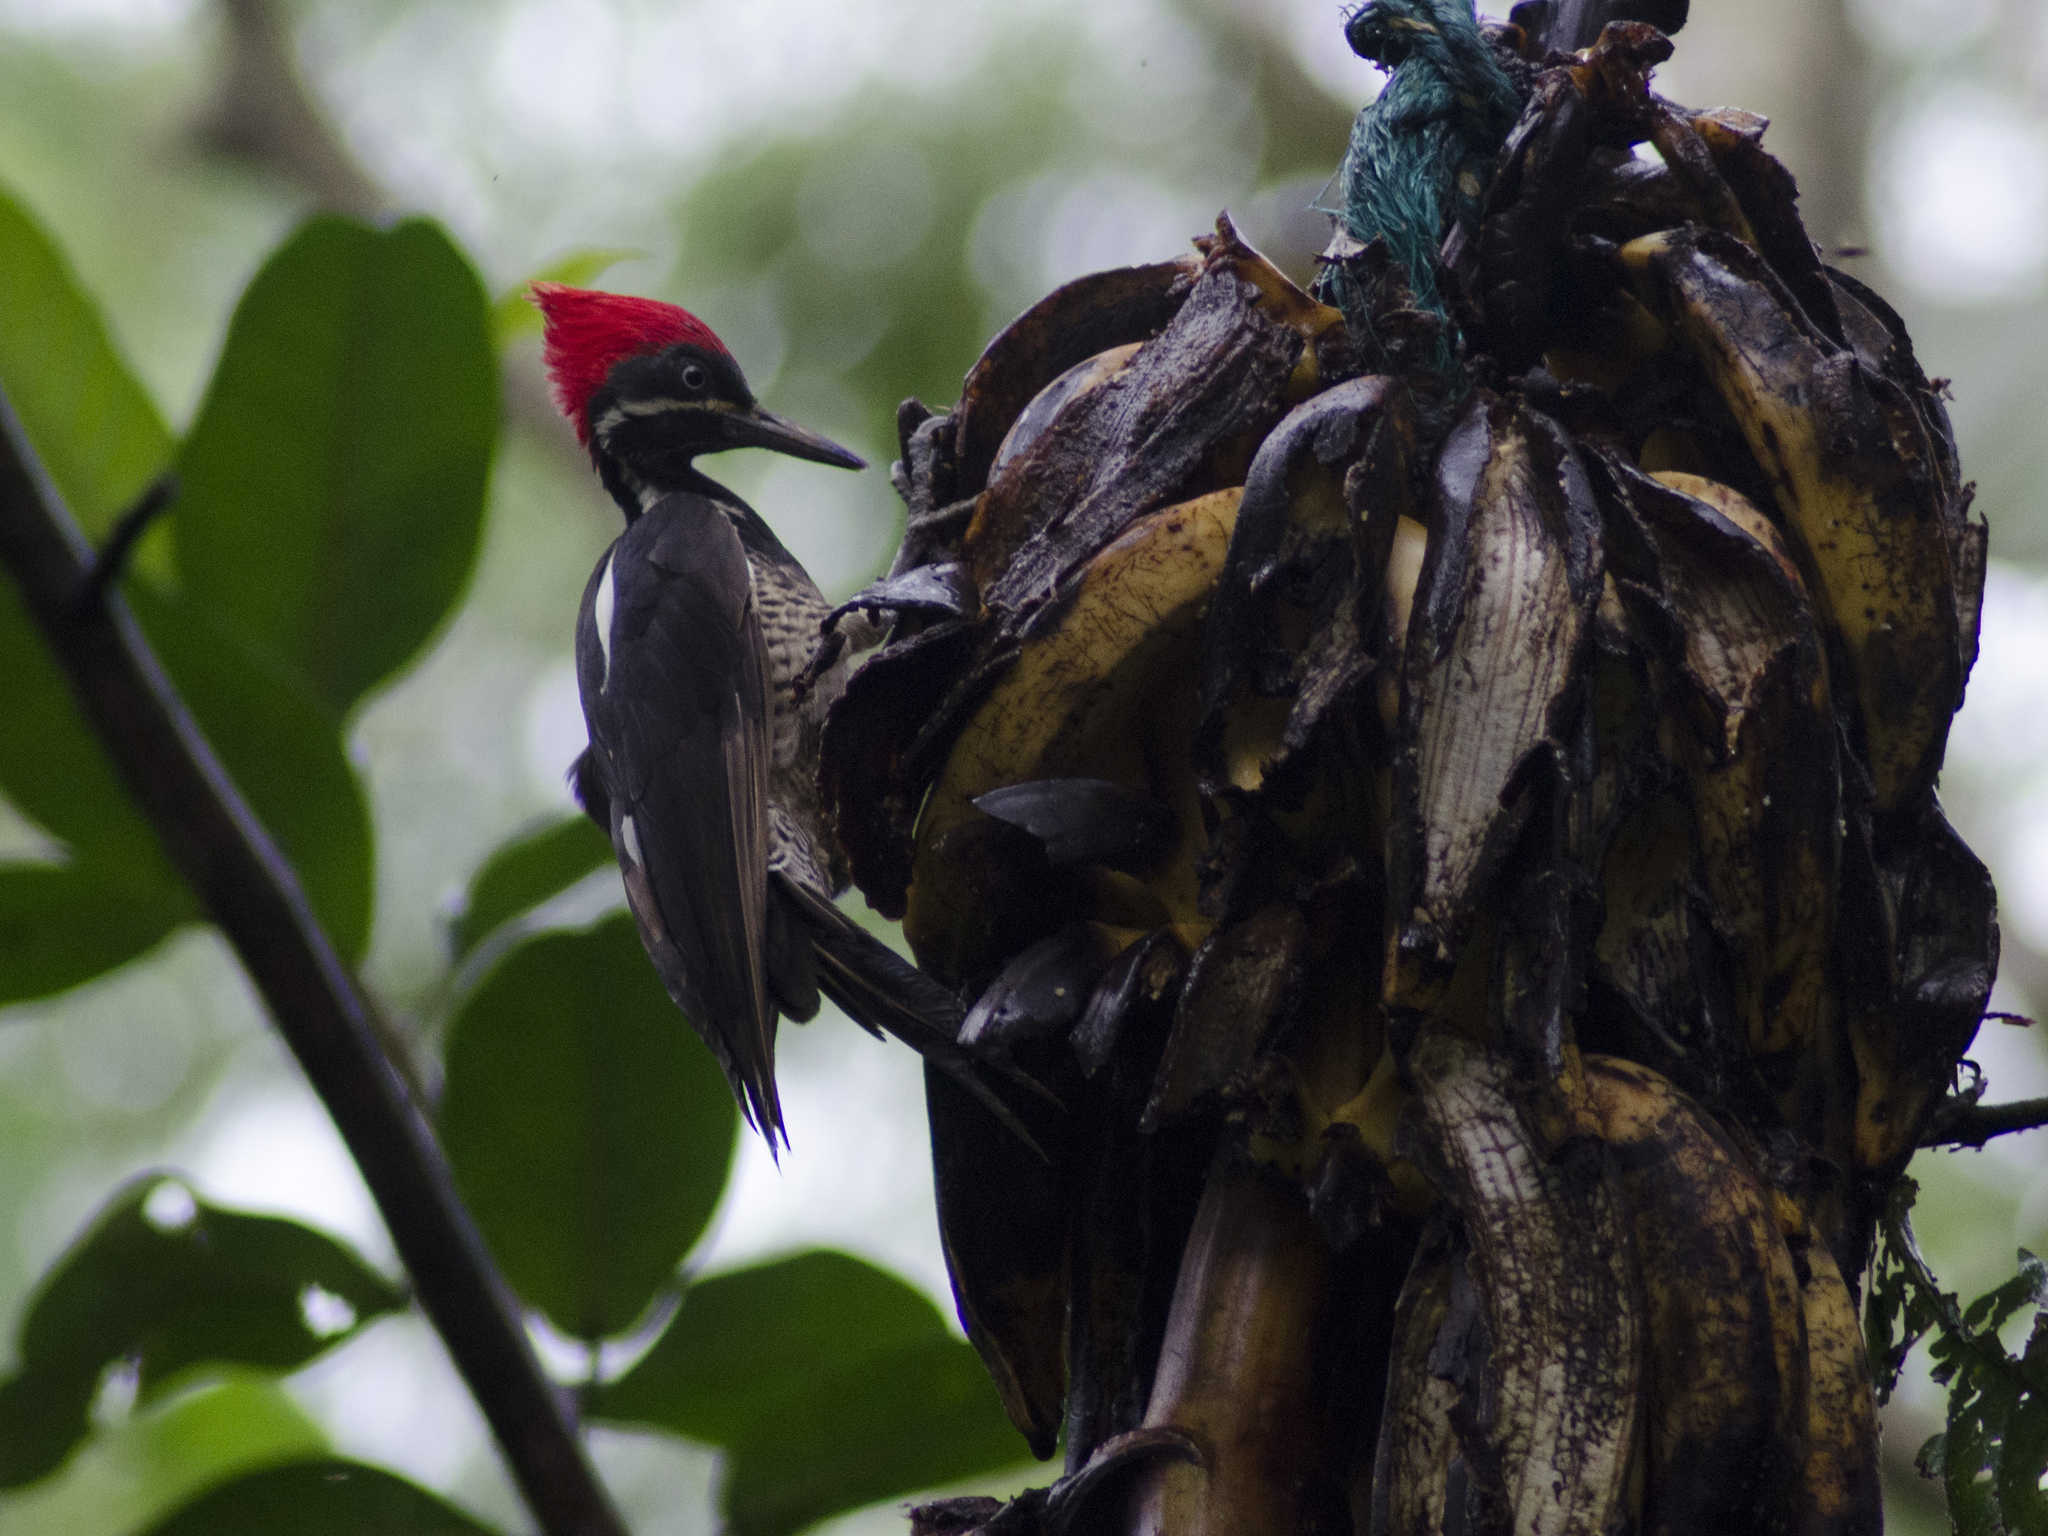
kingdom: Animalia
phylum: Chordata
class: Aves
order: Piciformes
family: Picidae
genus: Dryocopus
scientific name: Dryocopus lineatus
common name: Lineated woodpecker
